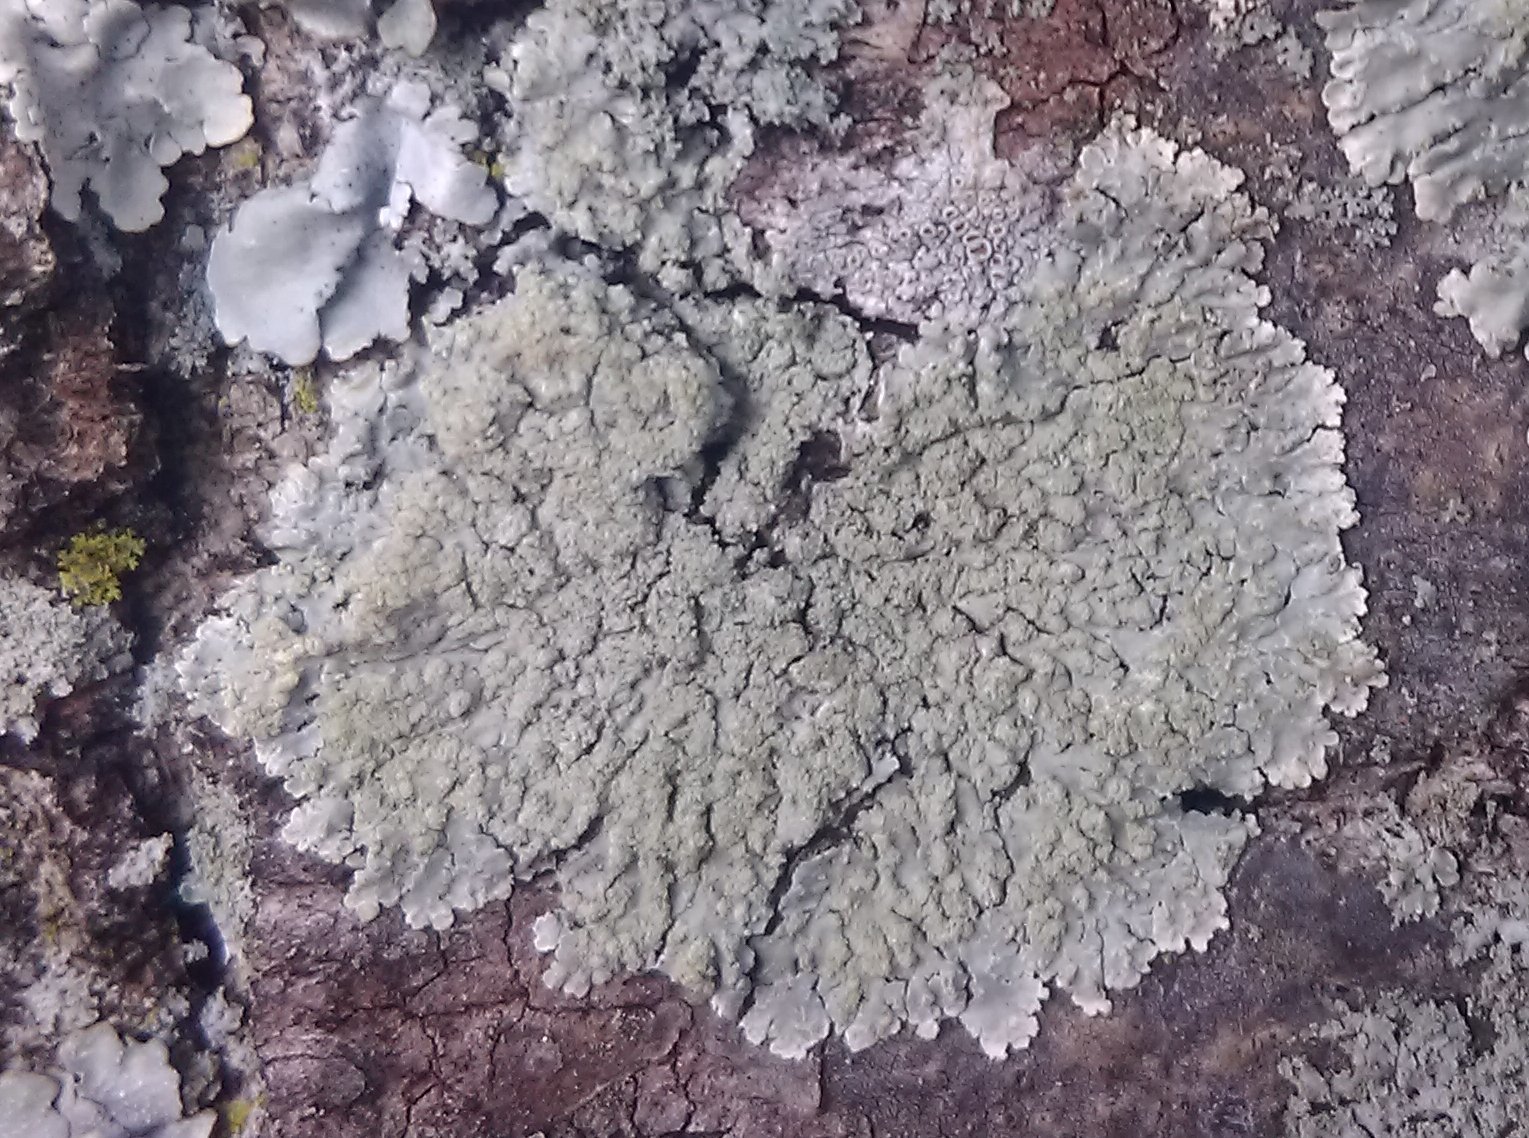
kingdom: Fungi
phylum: Ascomycota
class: Lecanoromycetes
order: Caliciales
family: Caliciaceae
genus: Pyxine
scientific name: Pyxine sorediata
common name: Mustard lichen
